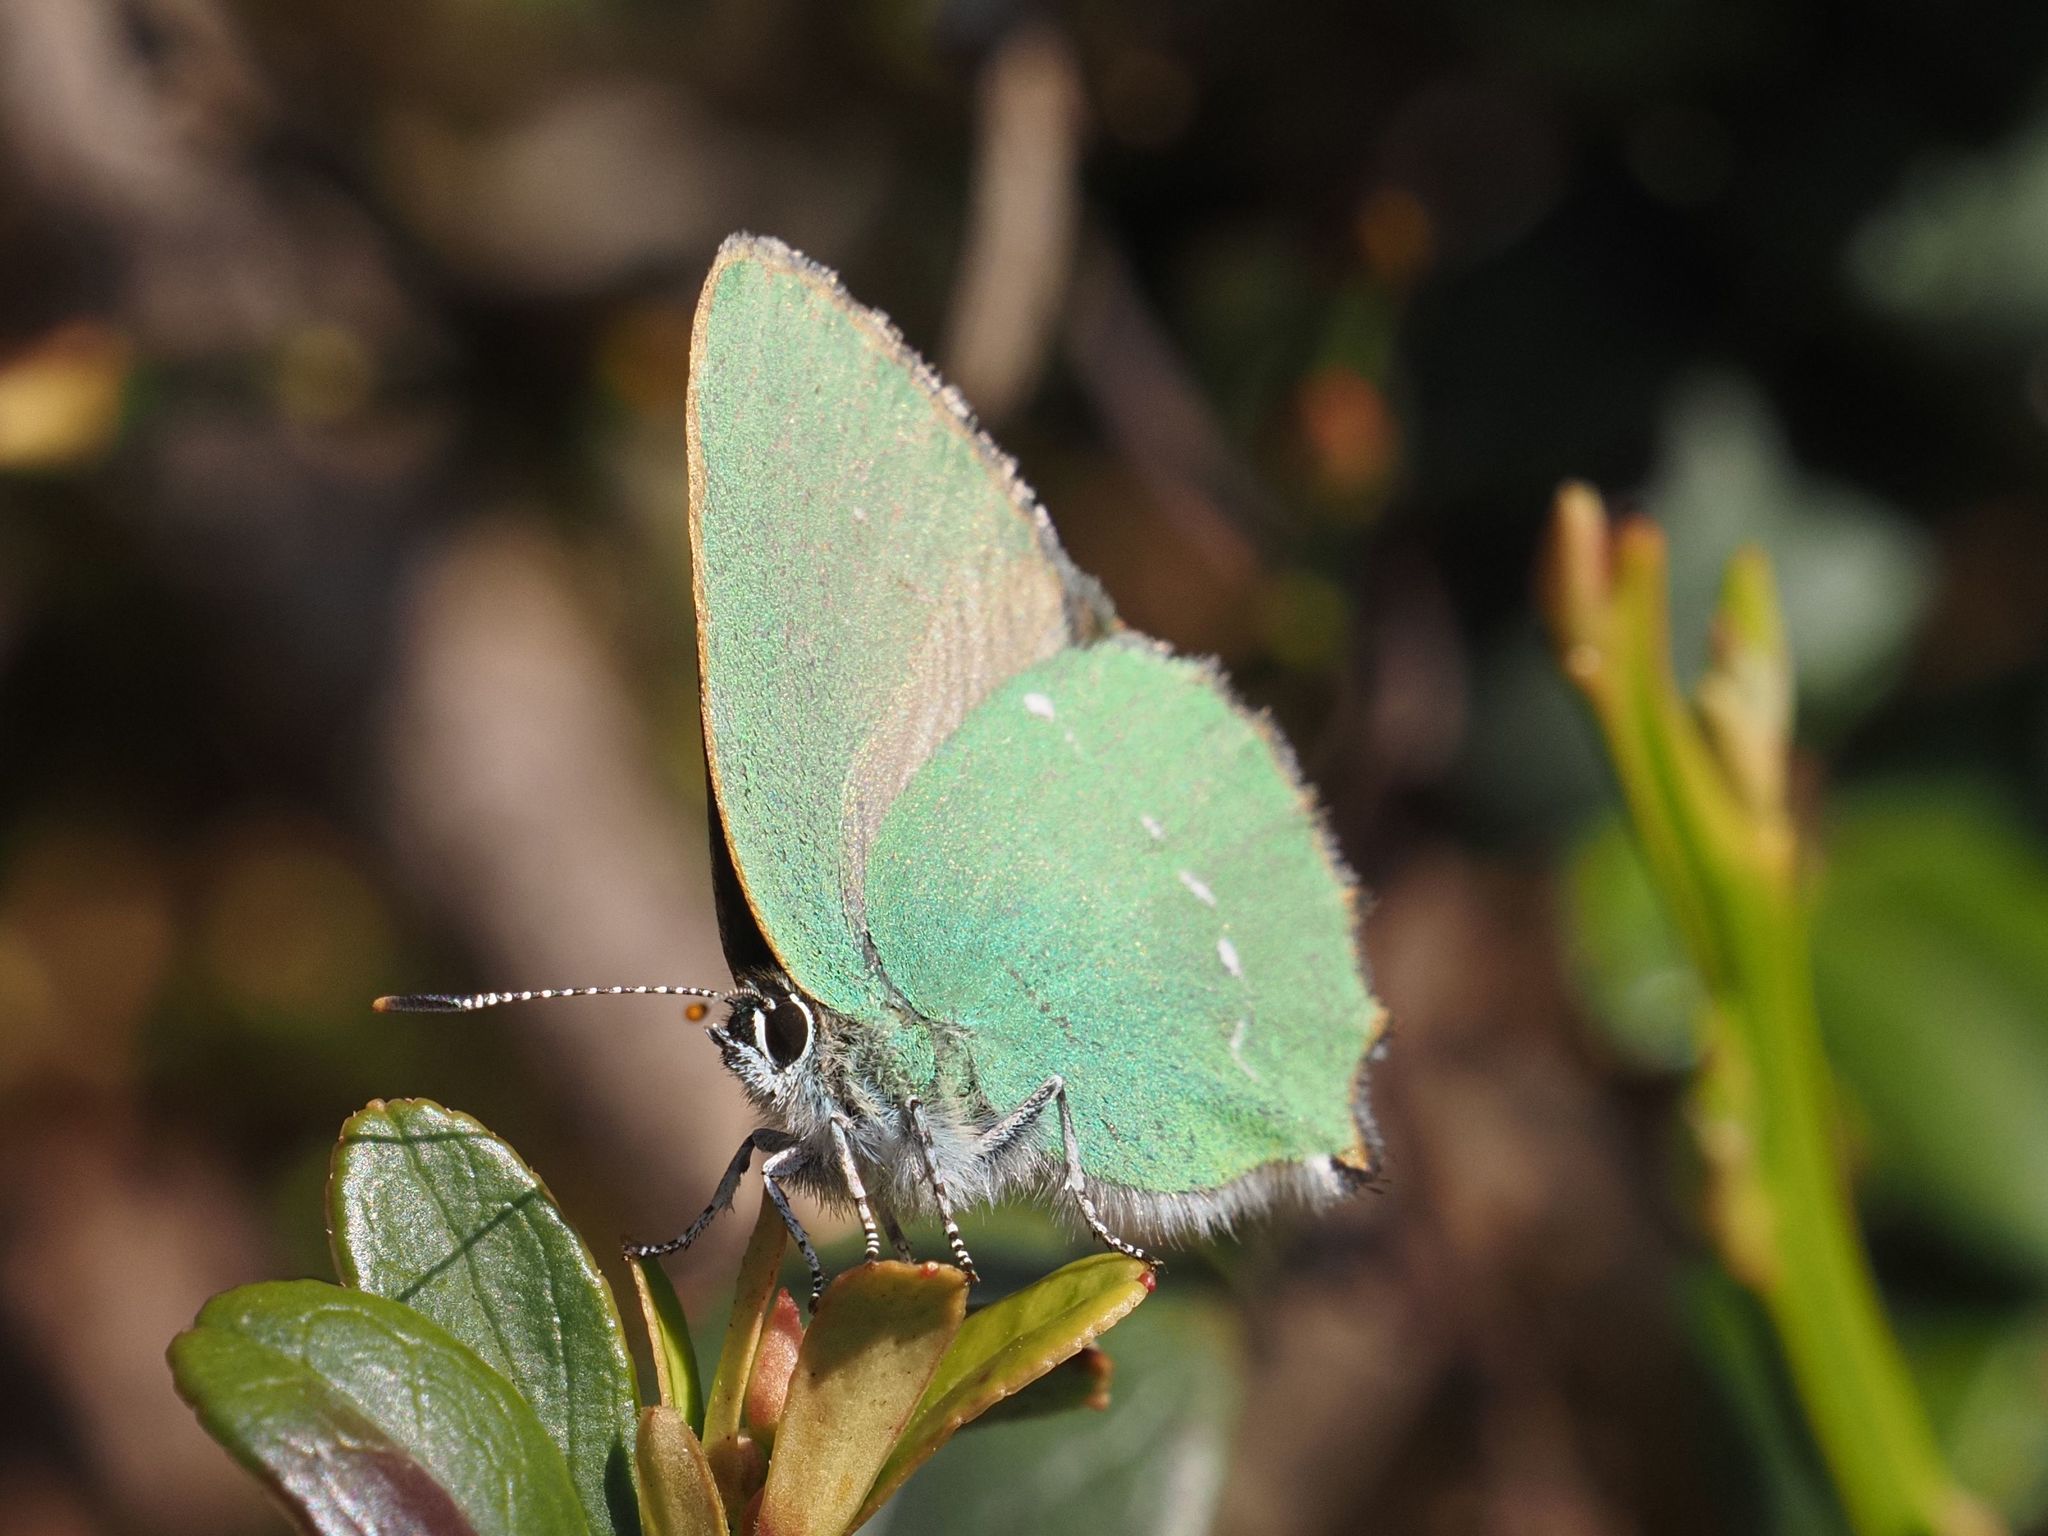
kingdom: Animalia
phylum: Arthropoda
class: Insecta
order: Lepidoptera
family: Lycaenidae
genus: Callophrys
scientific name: Callophrys rubi
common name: Green hairstreak
